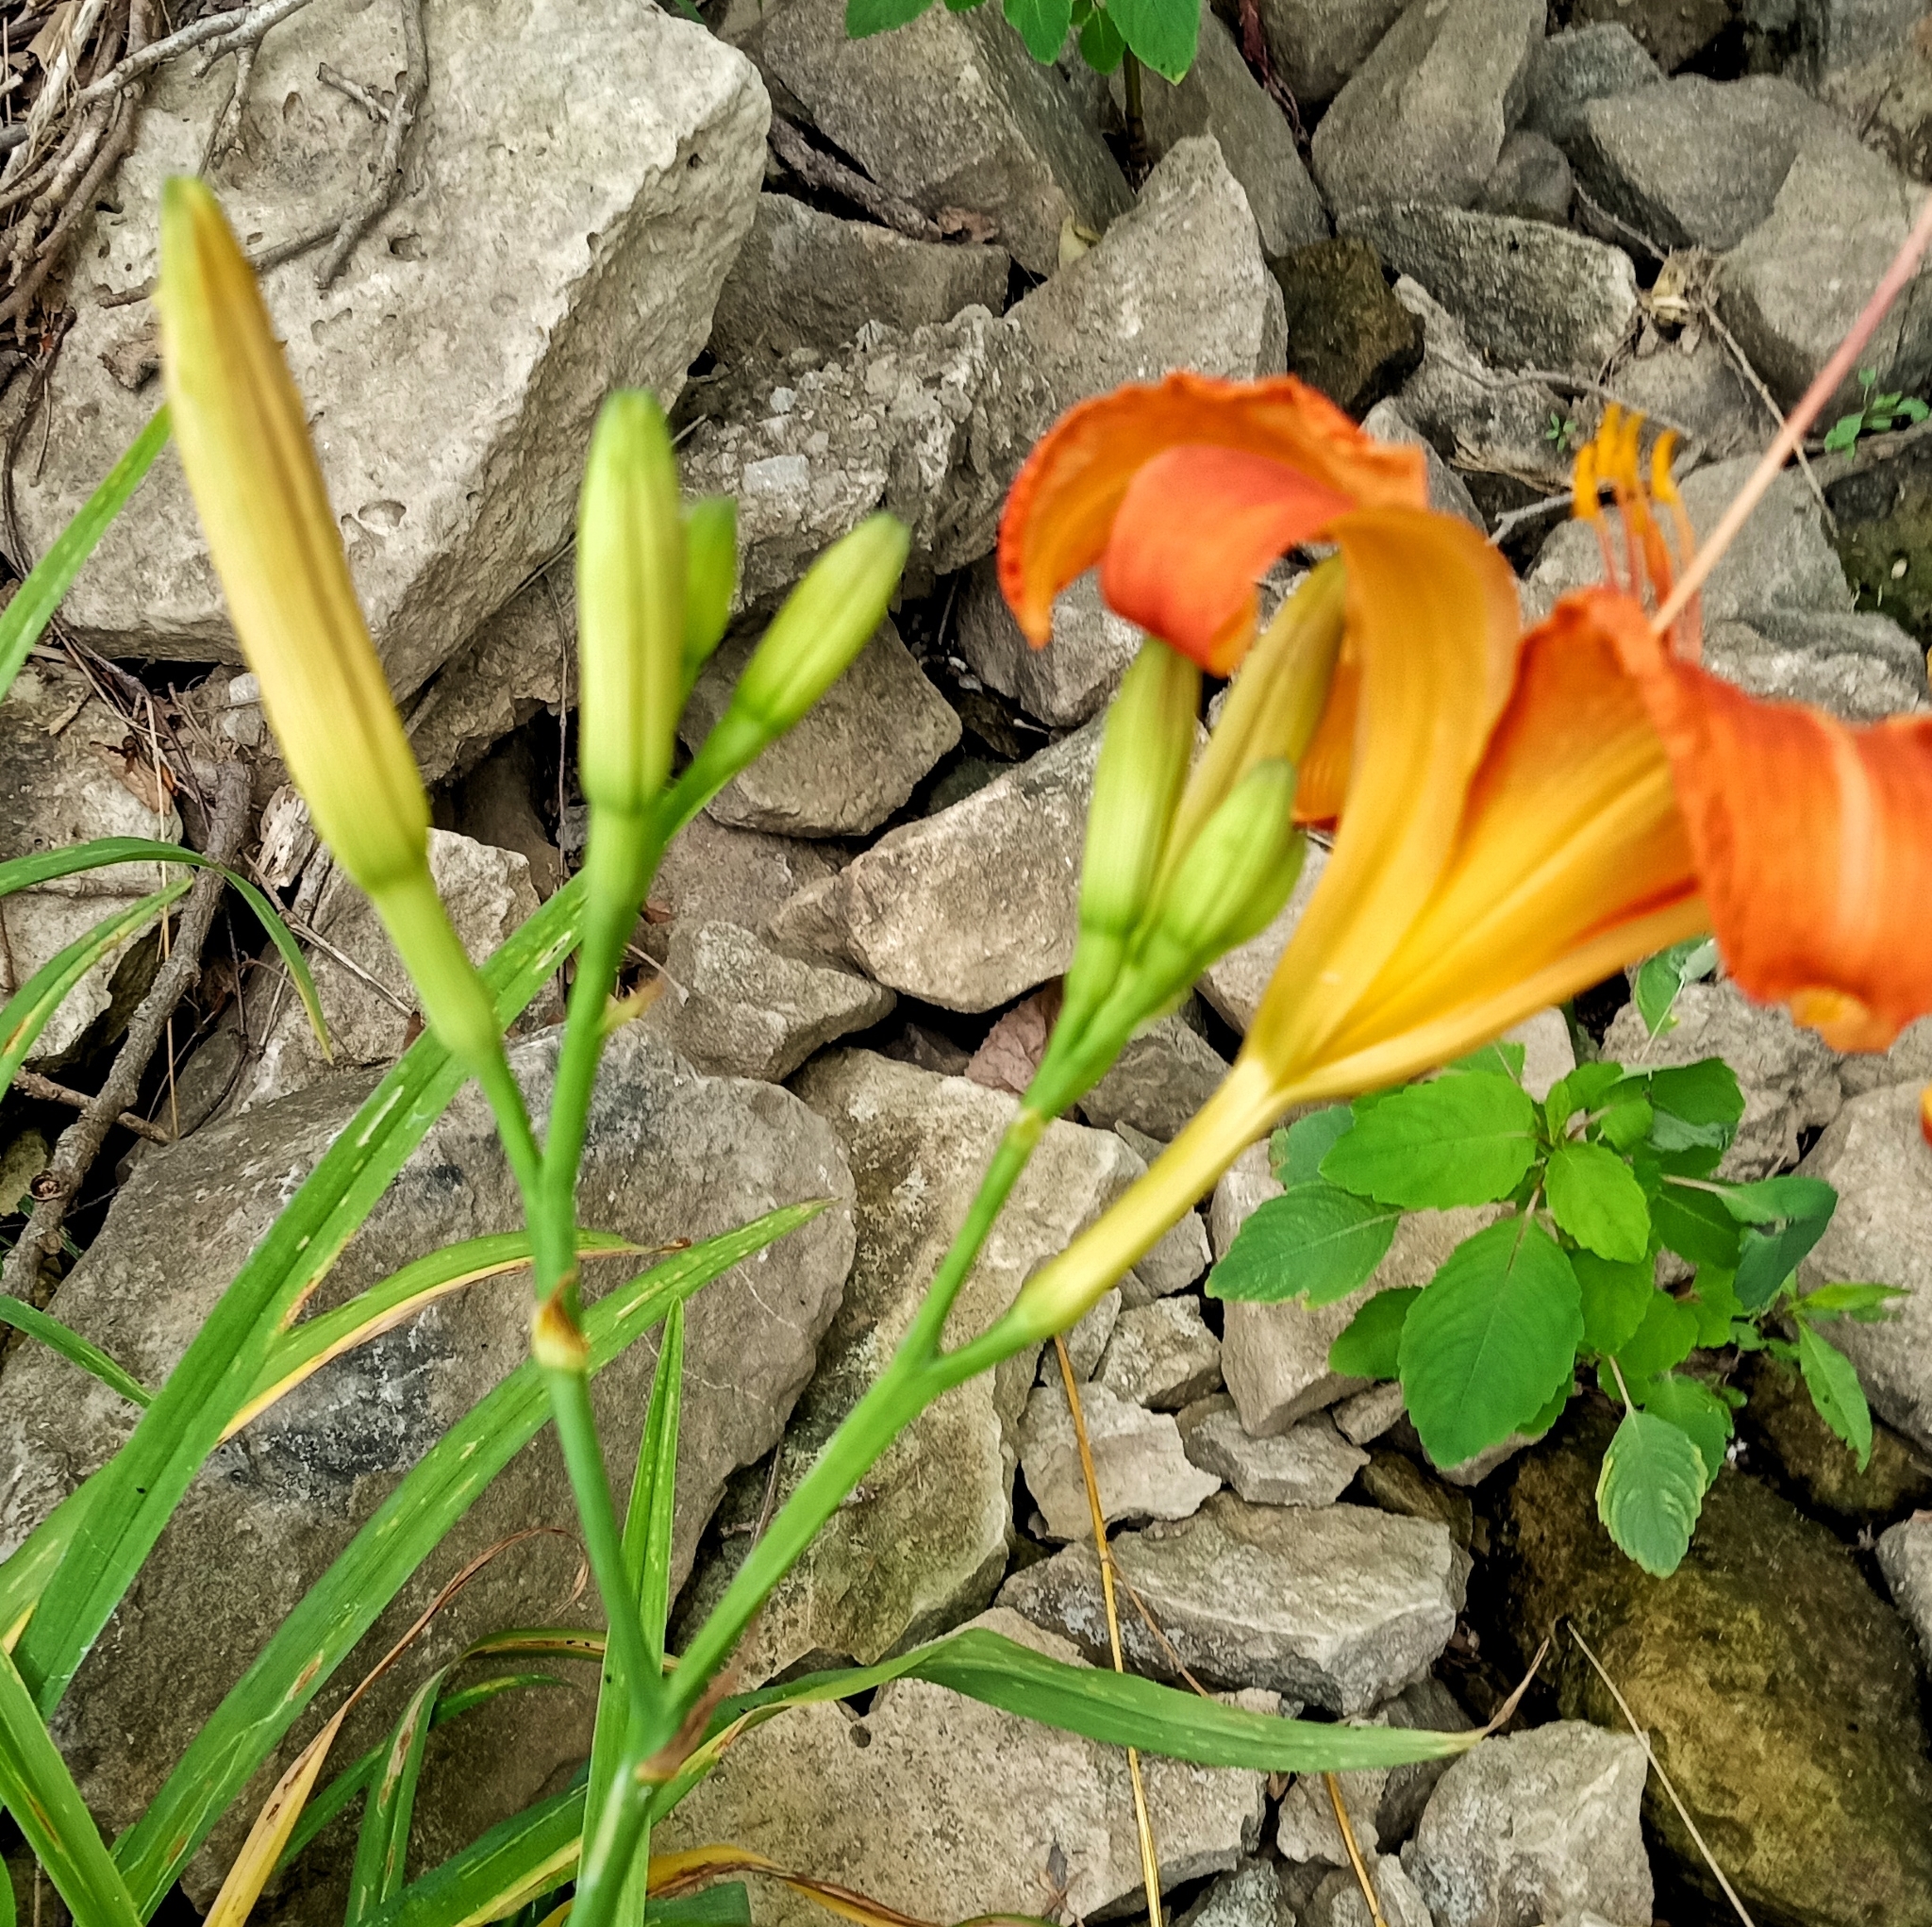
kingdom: Plantae
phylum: Tracheophyta
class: Liliopsida
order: Asparagales
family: Asphodelaceae
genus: Hemerocallis
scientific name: Hemerocallis fulva
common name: Orange day-lily
